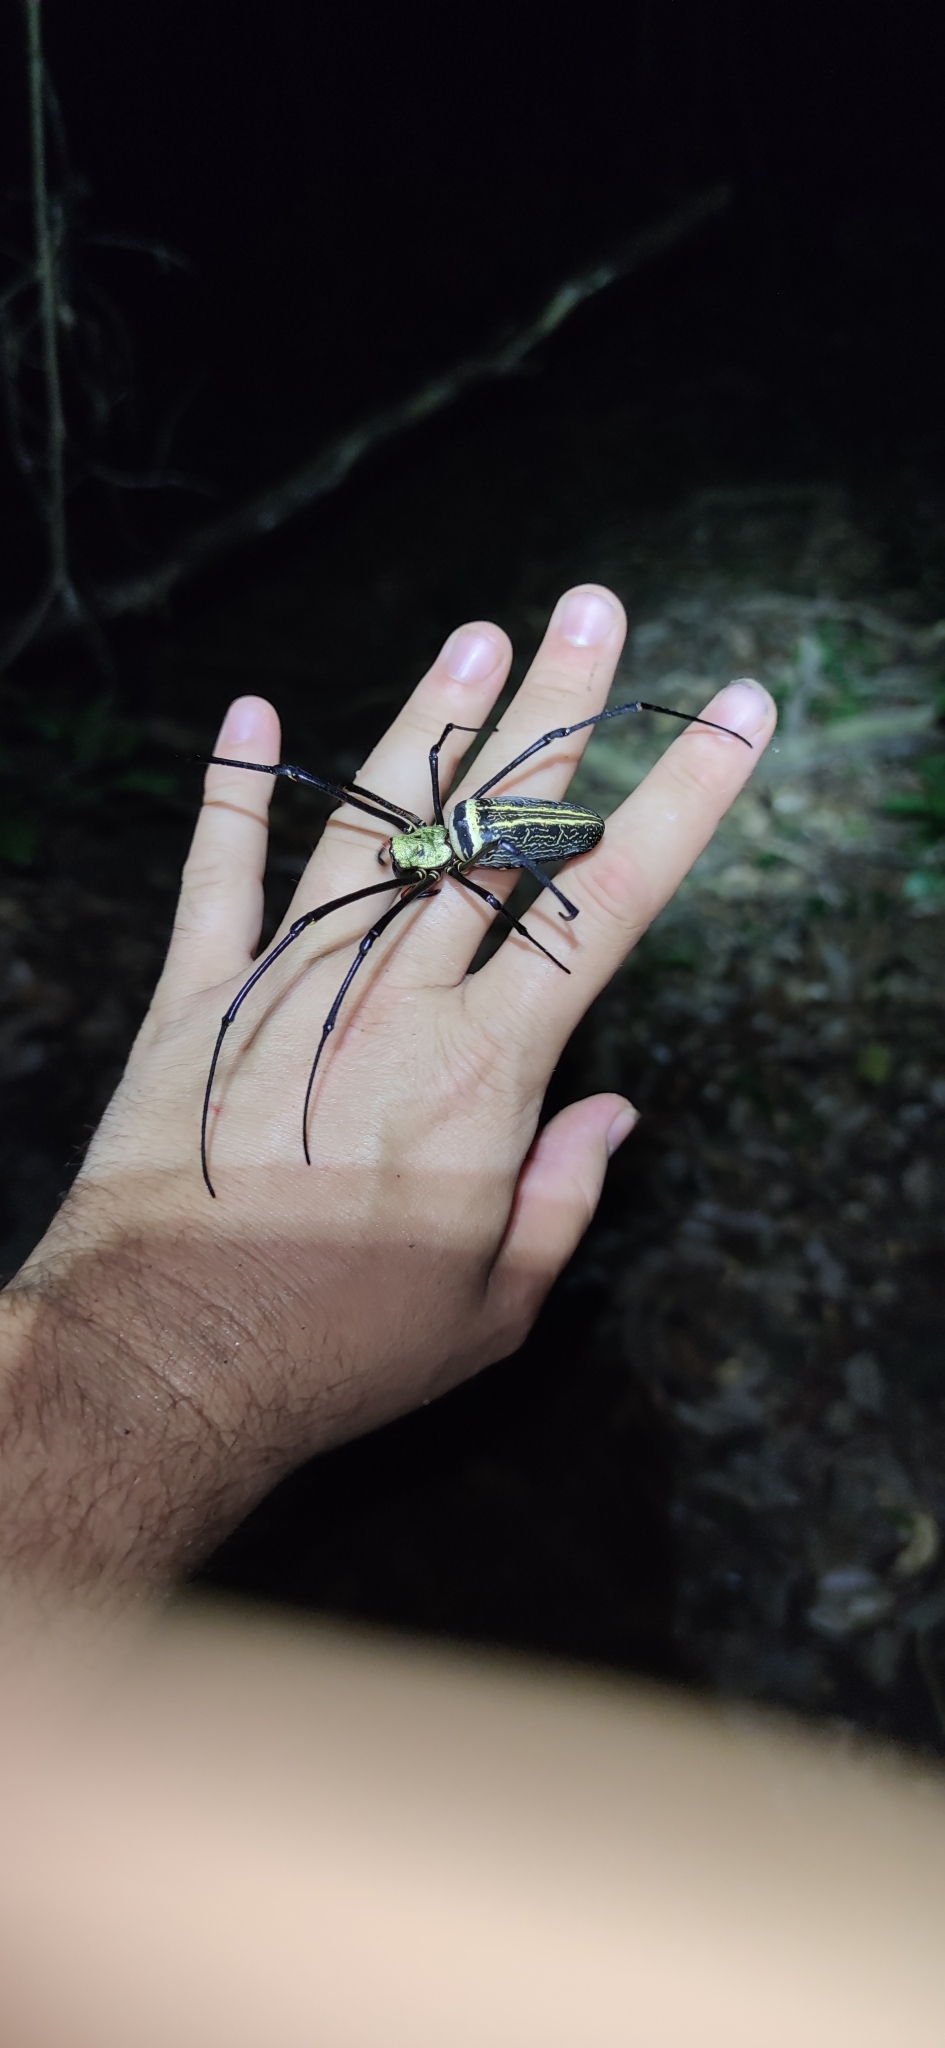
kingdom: Animalia
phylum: Arthropoda
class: Arachnida
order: Araneae
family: Araneidae
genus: Nephila
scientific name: Nephila pilipes
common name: Giant golden orb weaver
